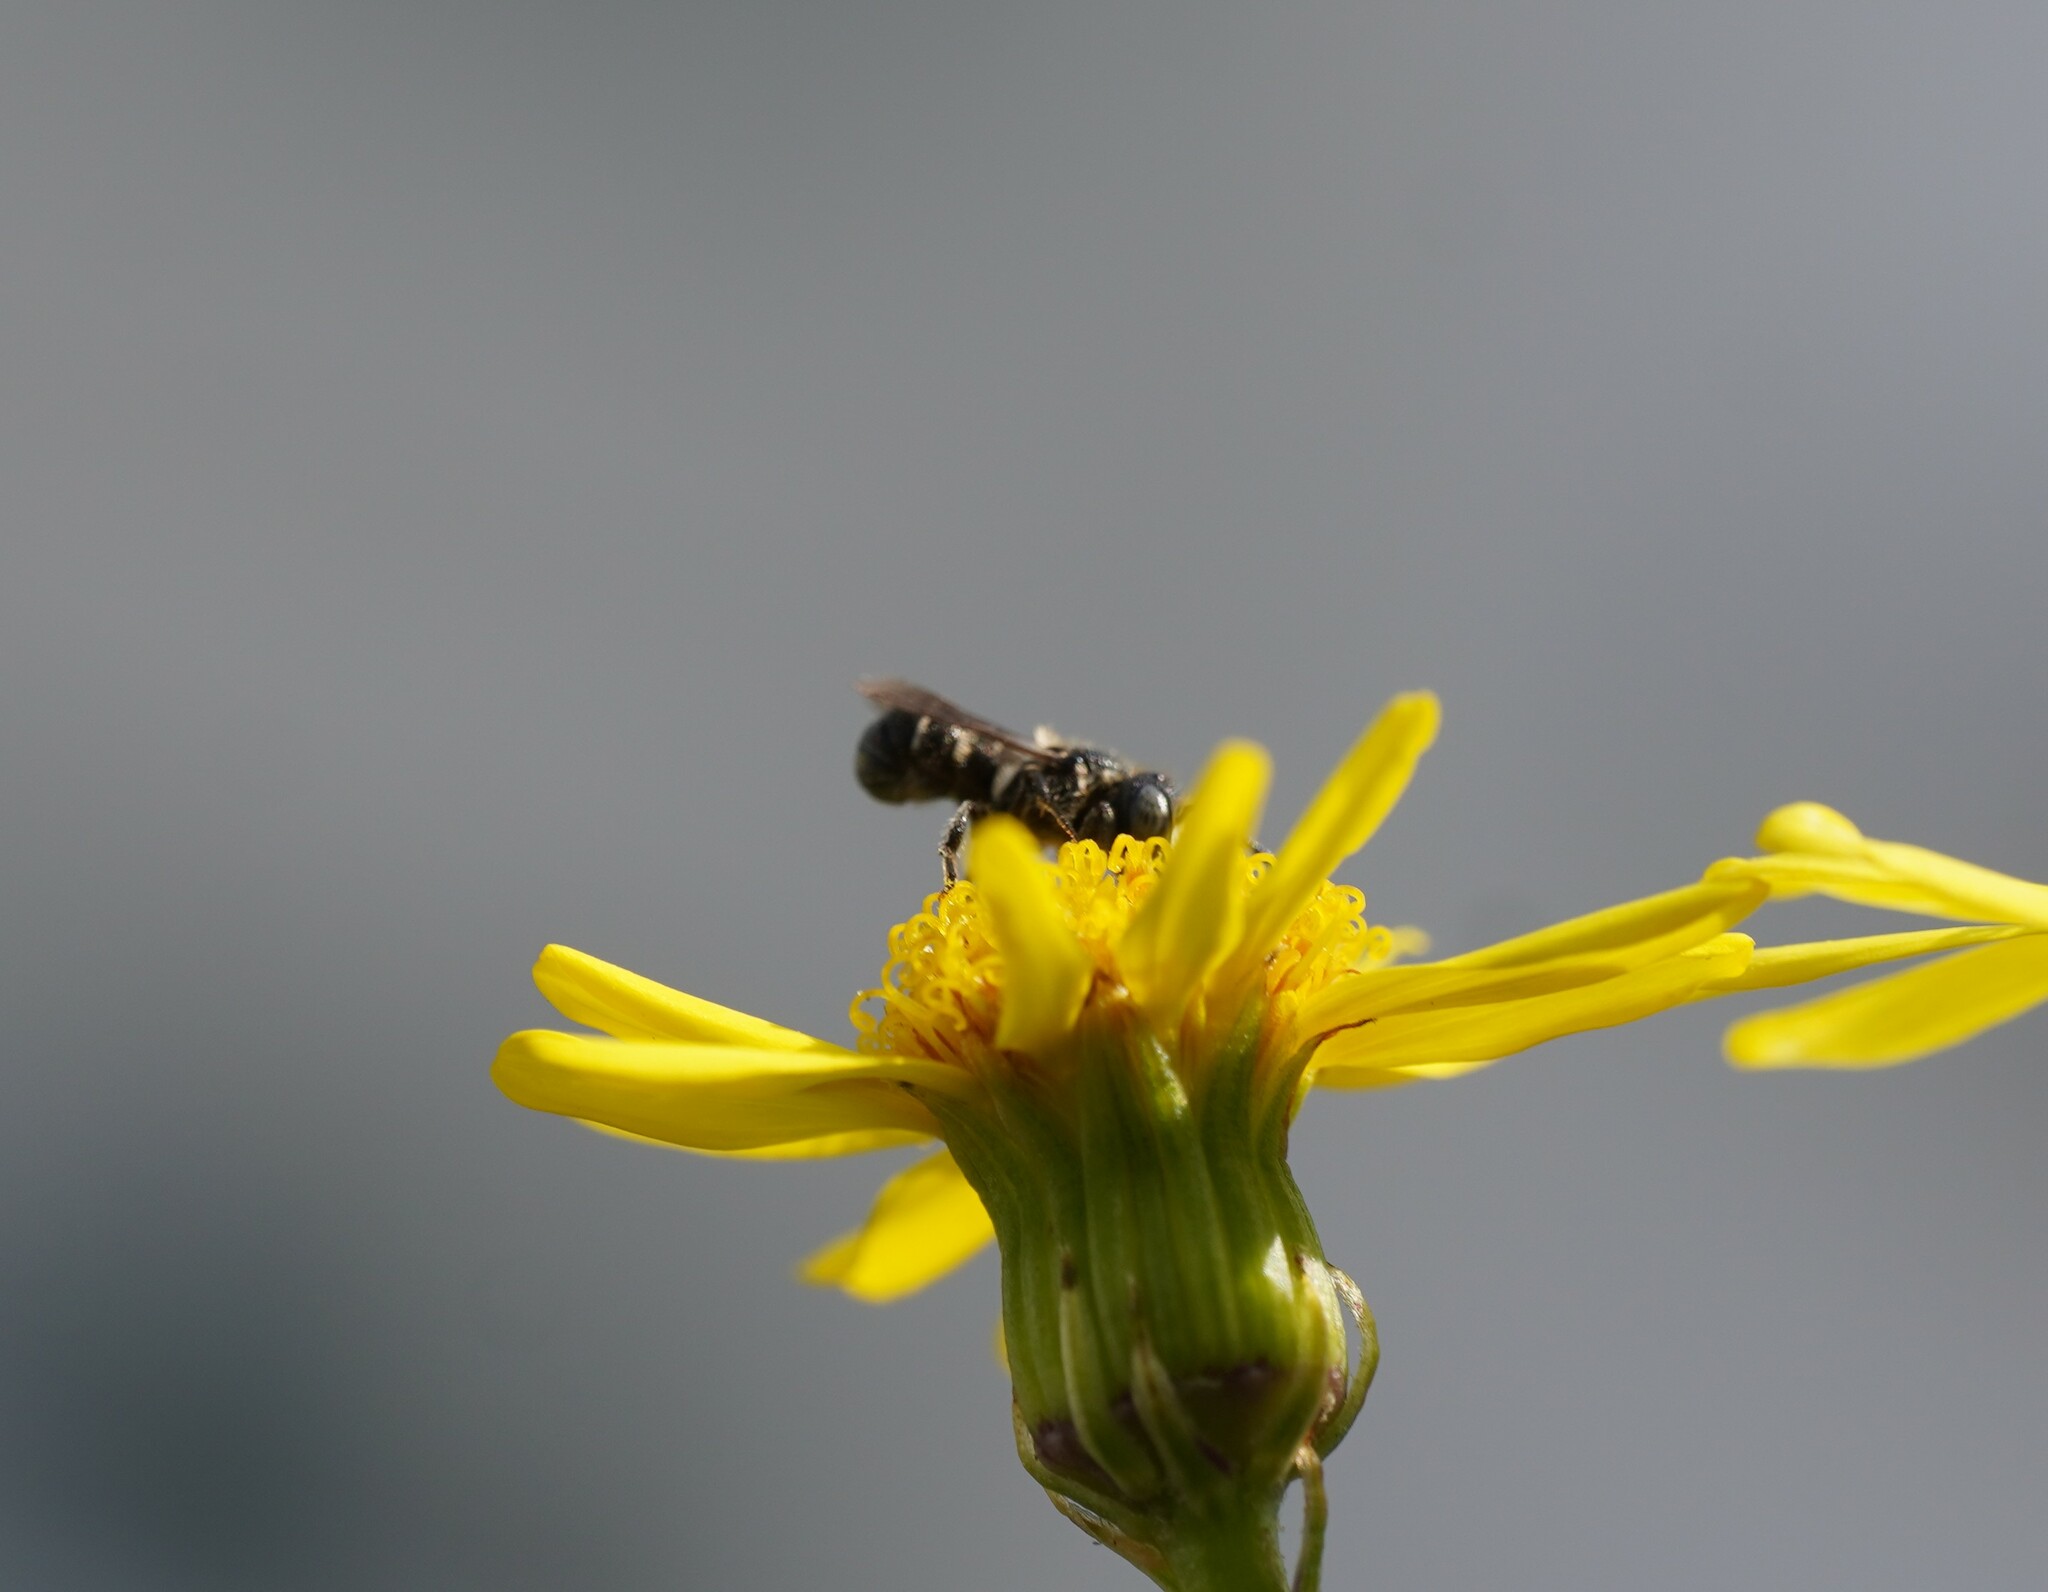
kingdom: Animalia
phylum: Arthropoda
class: Insecta
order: Hymenoptera
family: Megachilidae
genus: Heriades
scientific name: Heriades rubicola
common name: Bramble carpenter bee
